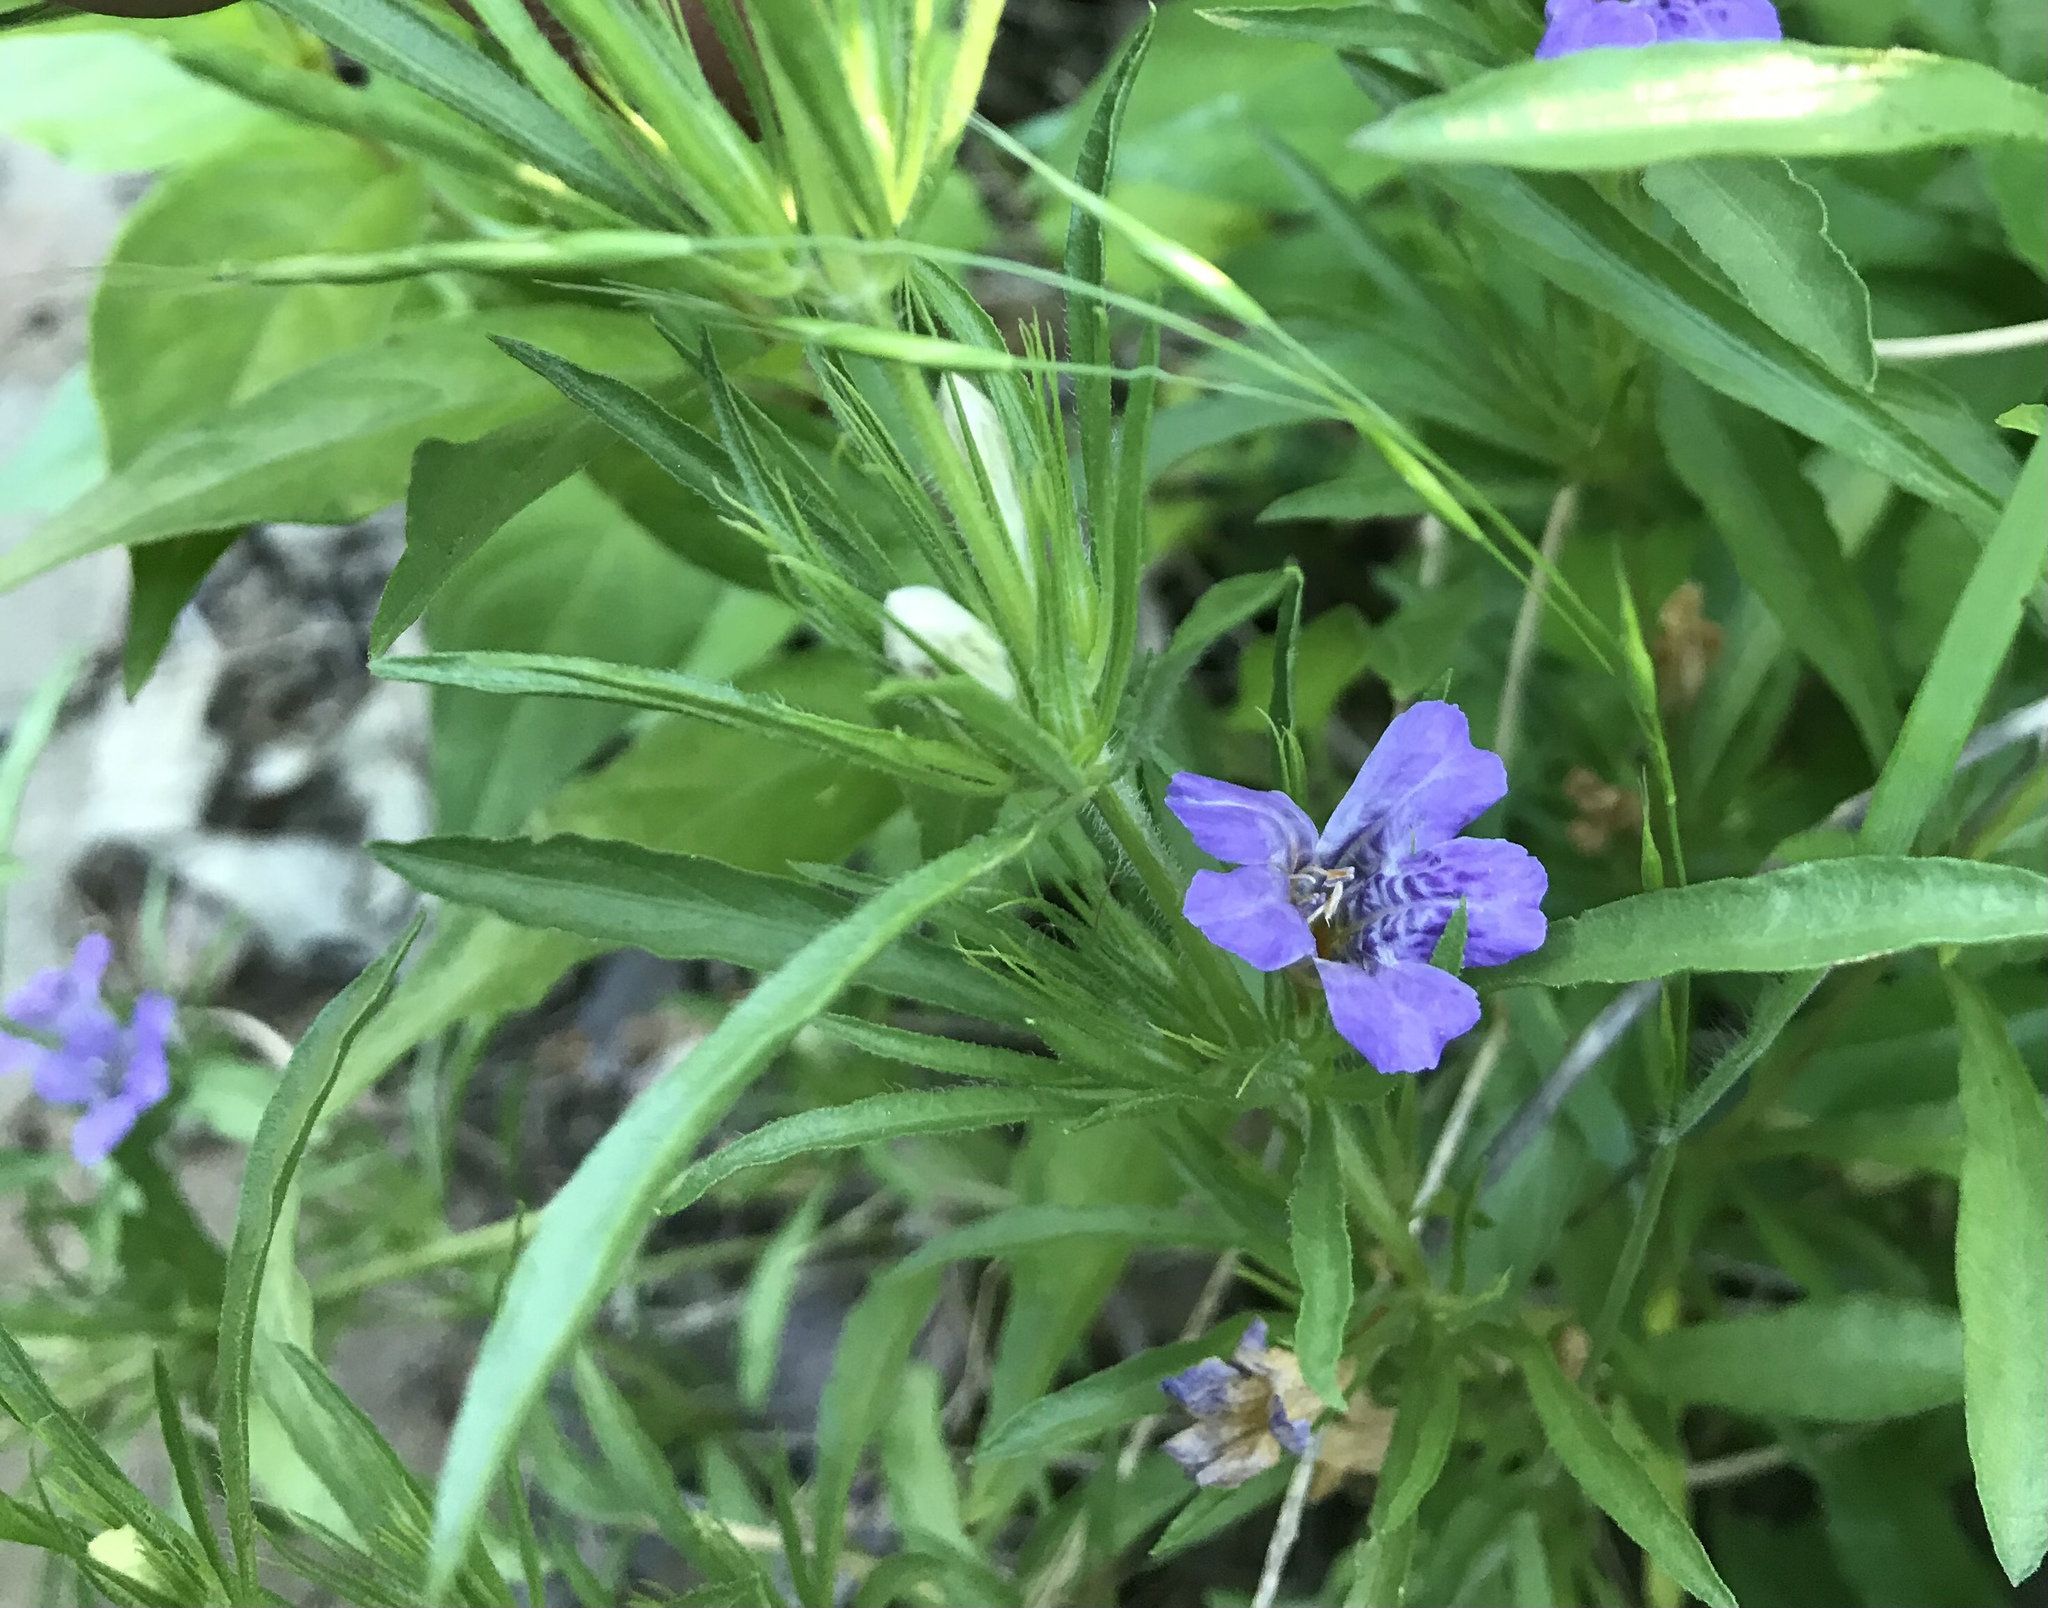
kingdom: Plantae
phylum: Tracheophyta
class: Magnoliopsida
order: Lamiales
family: Acanthaceae
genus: Dyschoriste
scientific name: Dyschoriste linearis
